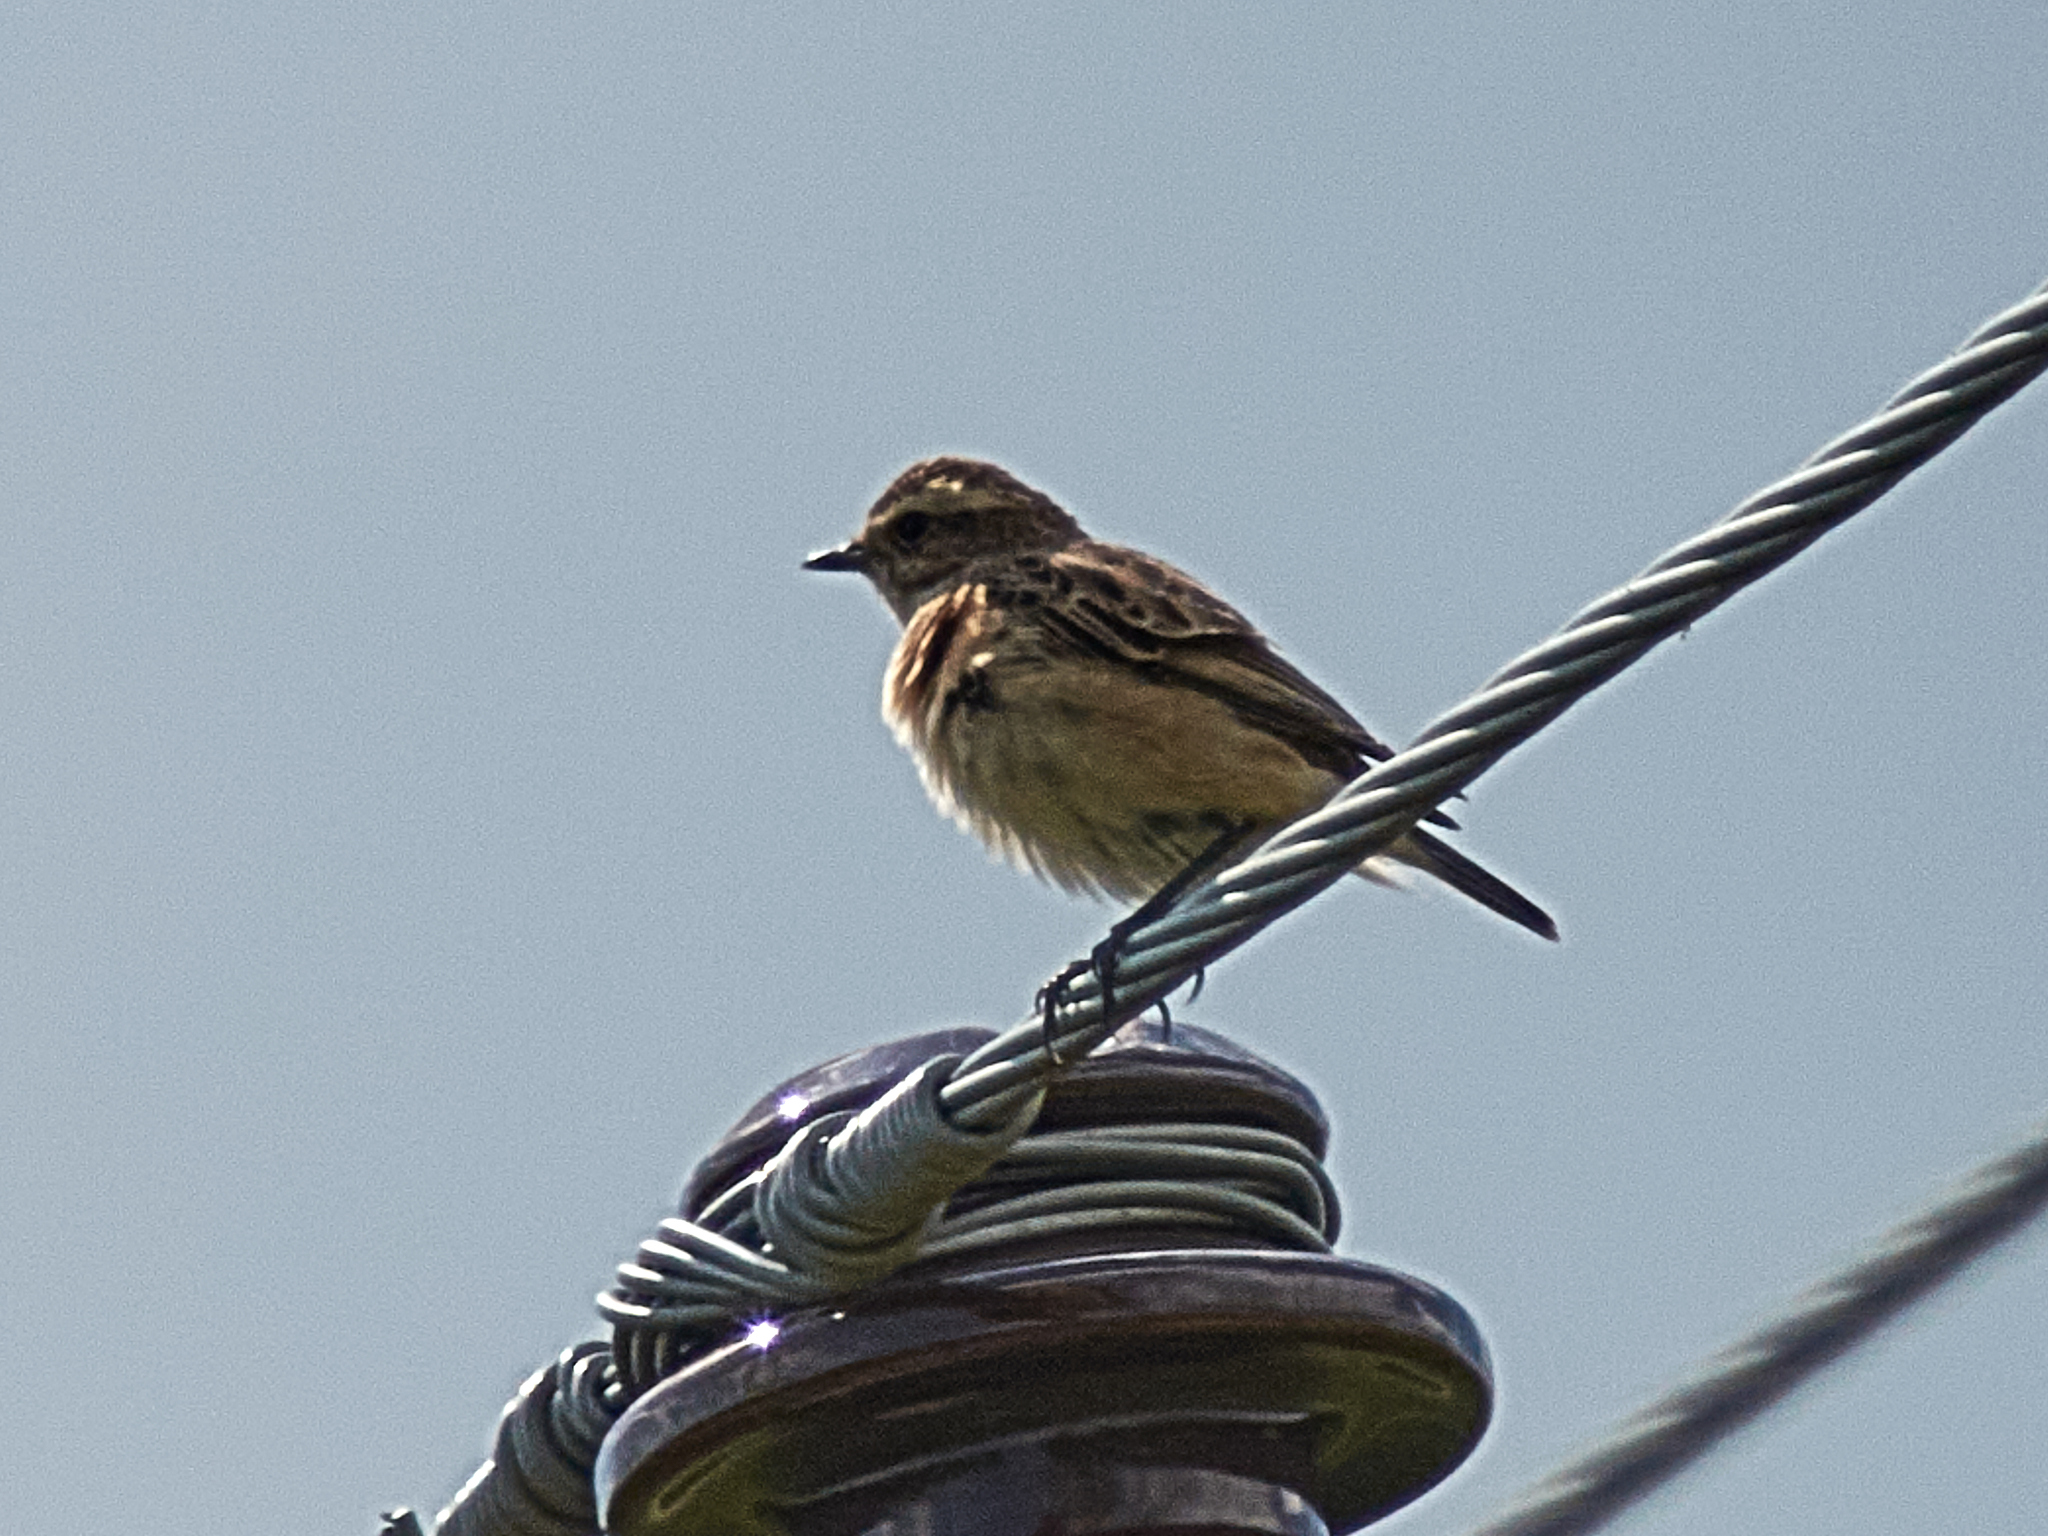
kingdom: Animalia
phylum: Chordata
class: Aves
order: Passeriformes
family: Muscicapidae
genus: Saxicola
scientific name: Saxicola rubetra
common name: Whinchat
